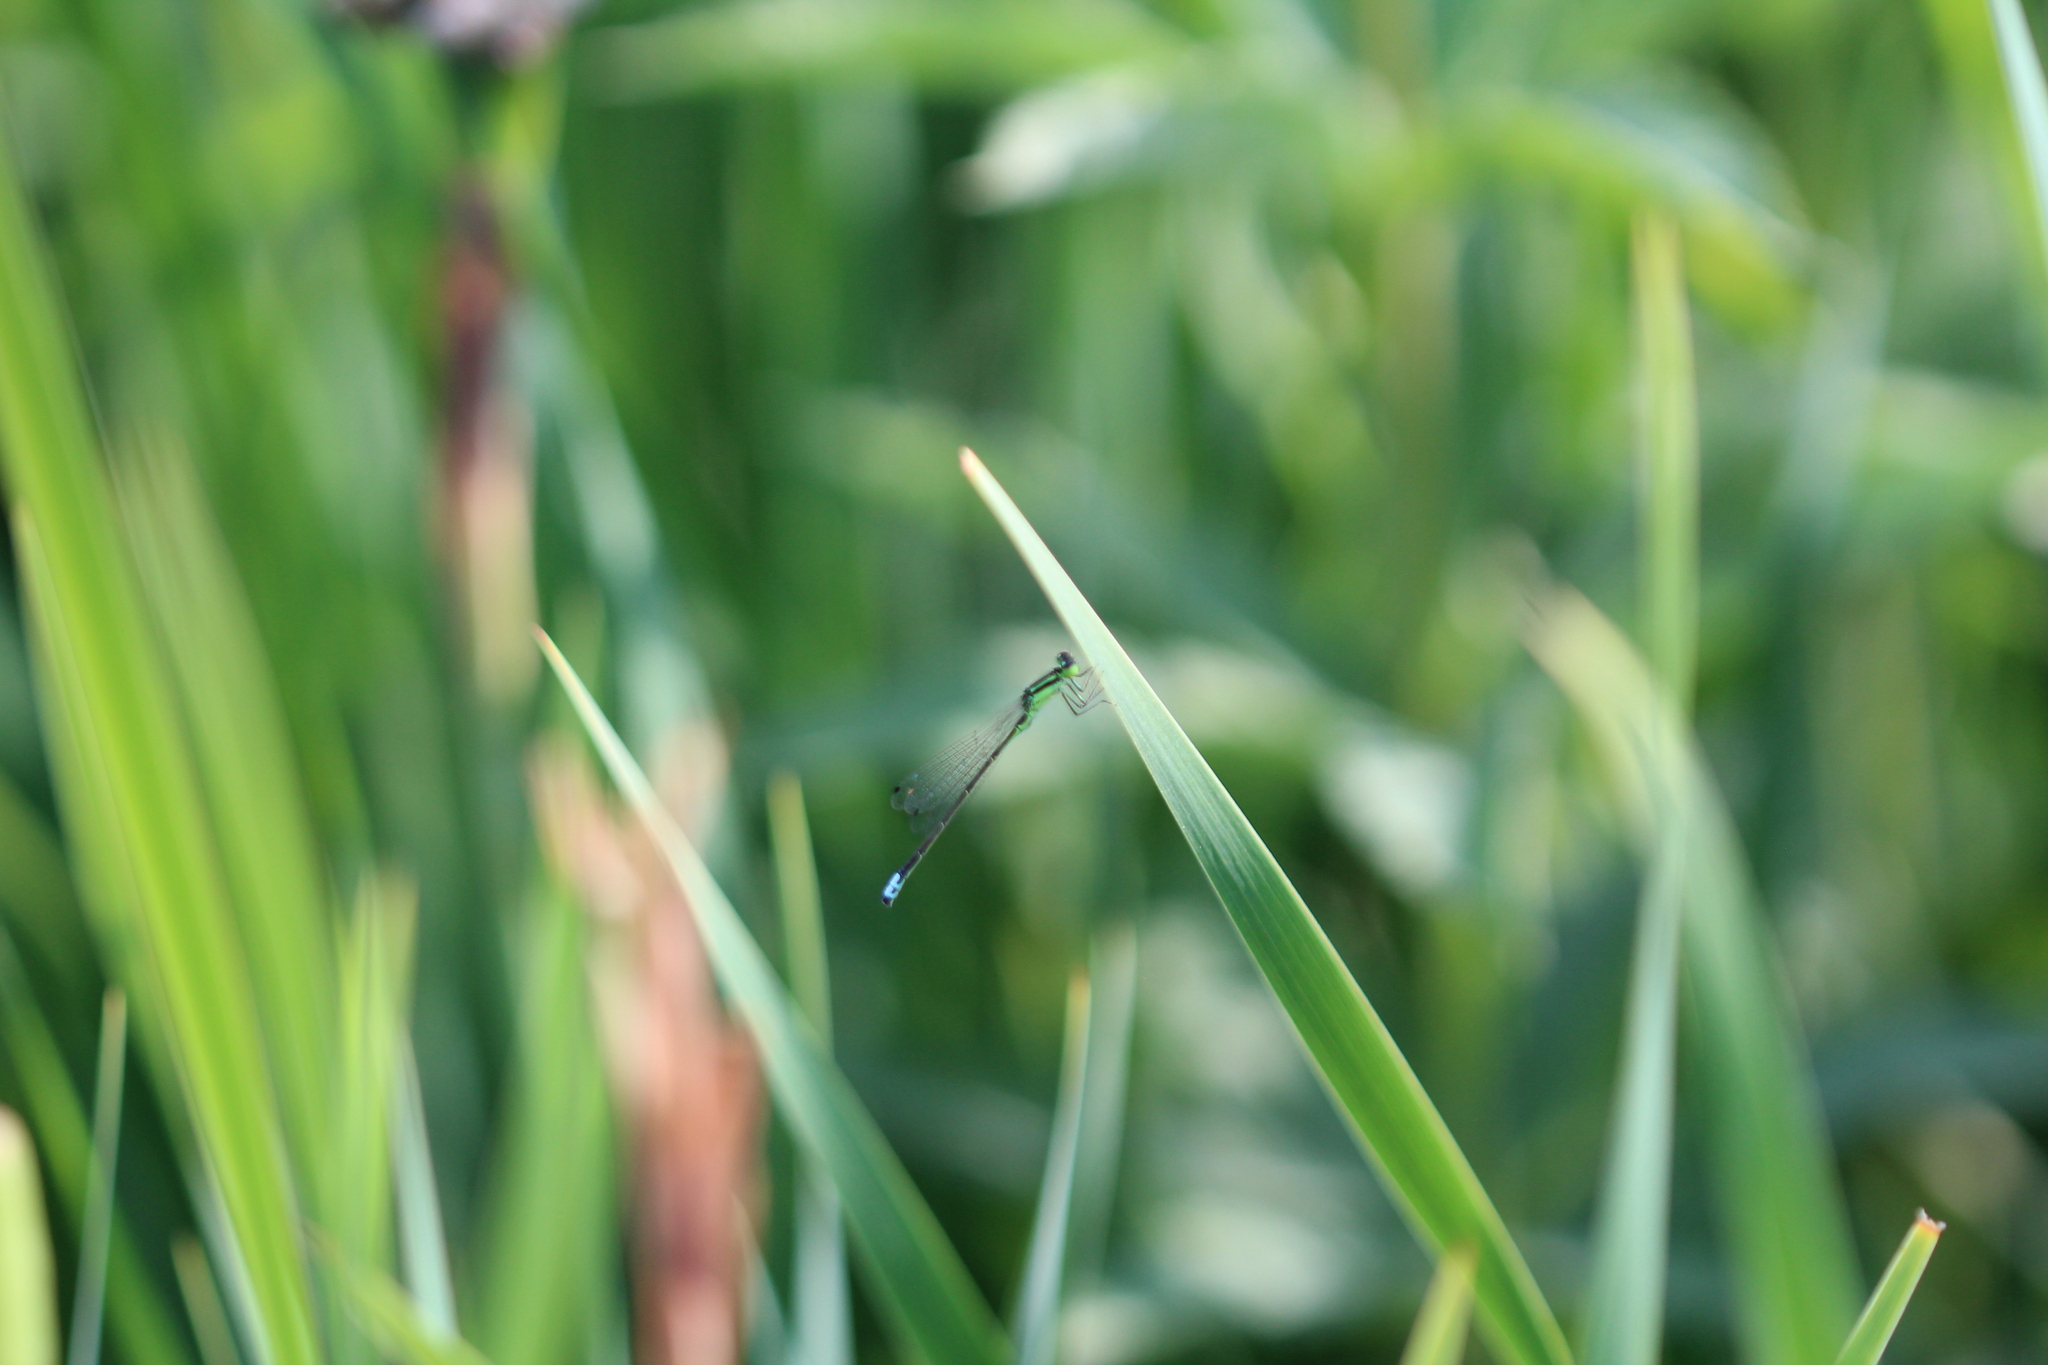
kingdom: Animalia
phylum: Arthropoda
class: Insecta
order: Odonata
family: Coenagrionidae
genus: Ischnura
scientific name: Ischnura verticalis
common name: Eastern forktail
